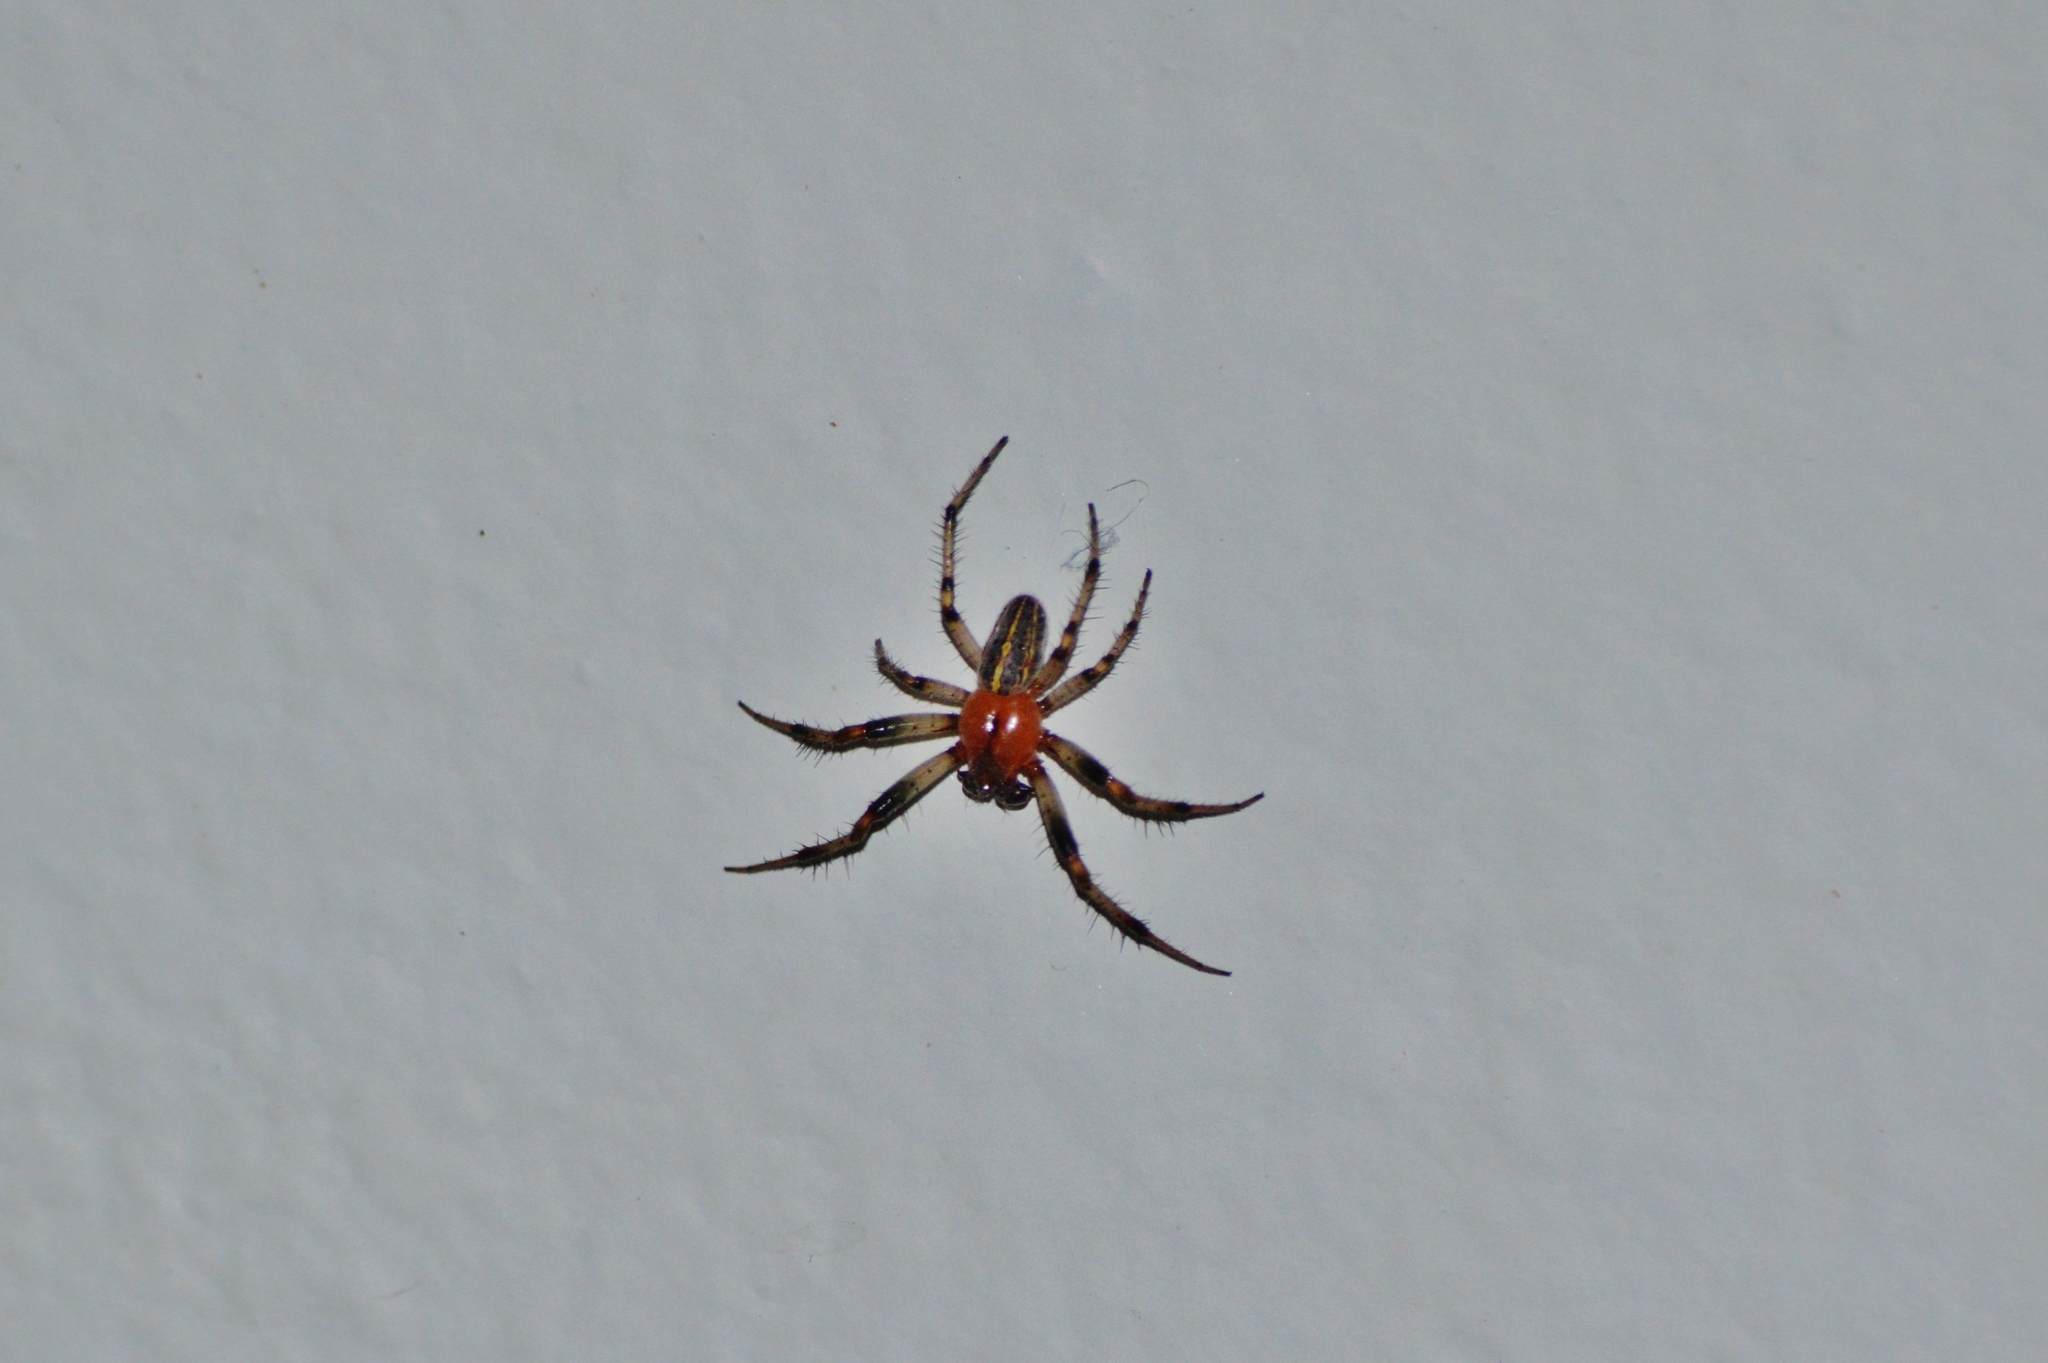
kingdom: Animalia
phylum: Arthropoda
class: Arachnida
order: Araneae
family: Araneidae
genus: Alpaida
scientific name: Alpaida veniliae
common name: Orb weavers
